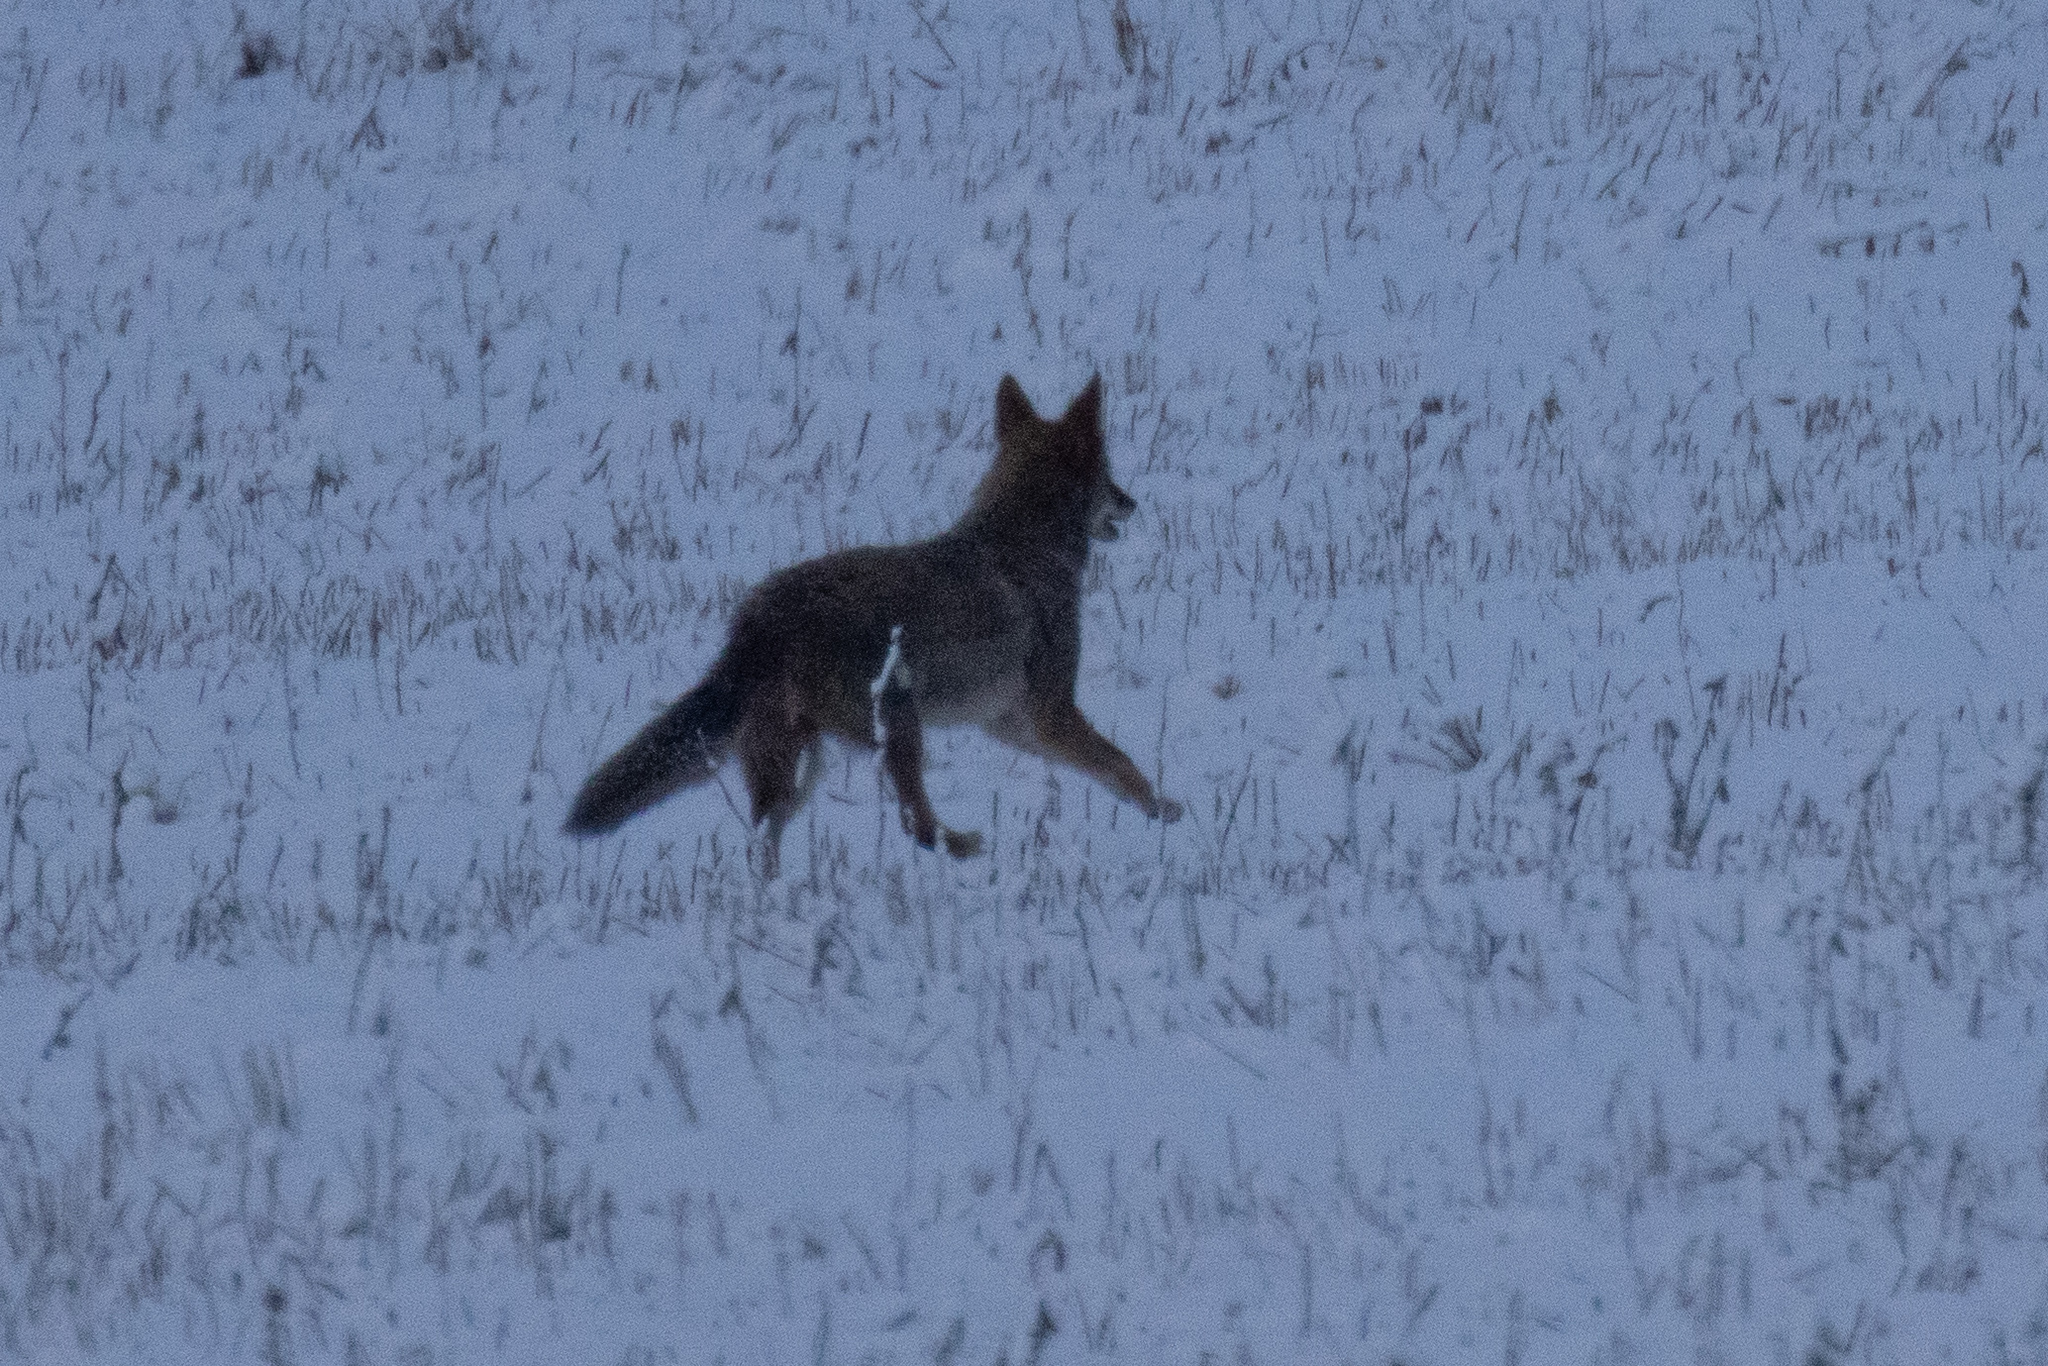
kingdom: Animalia
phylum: Chordata
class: Mammalia
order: Carnivora
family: Canidae
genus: Urocyon
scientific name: Urocyon cinereoargenteus
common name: Gray fox
